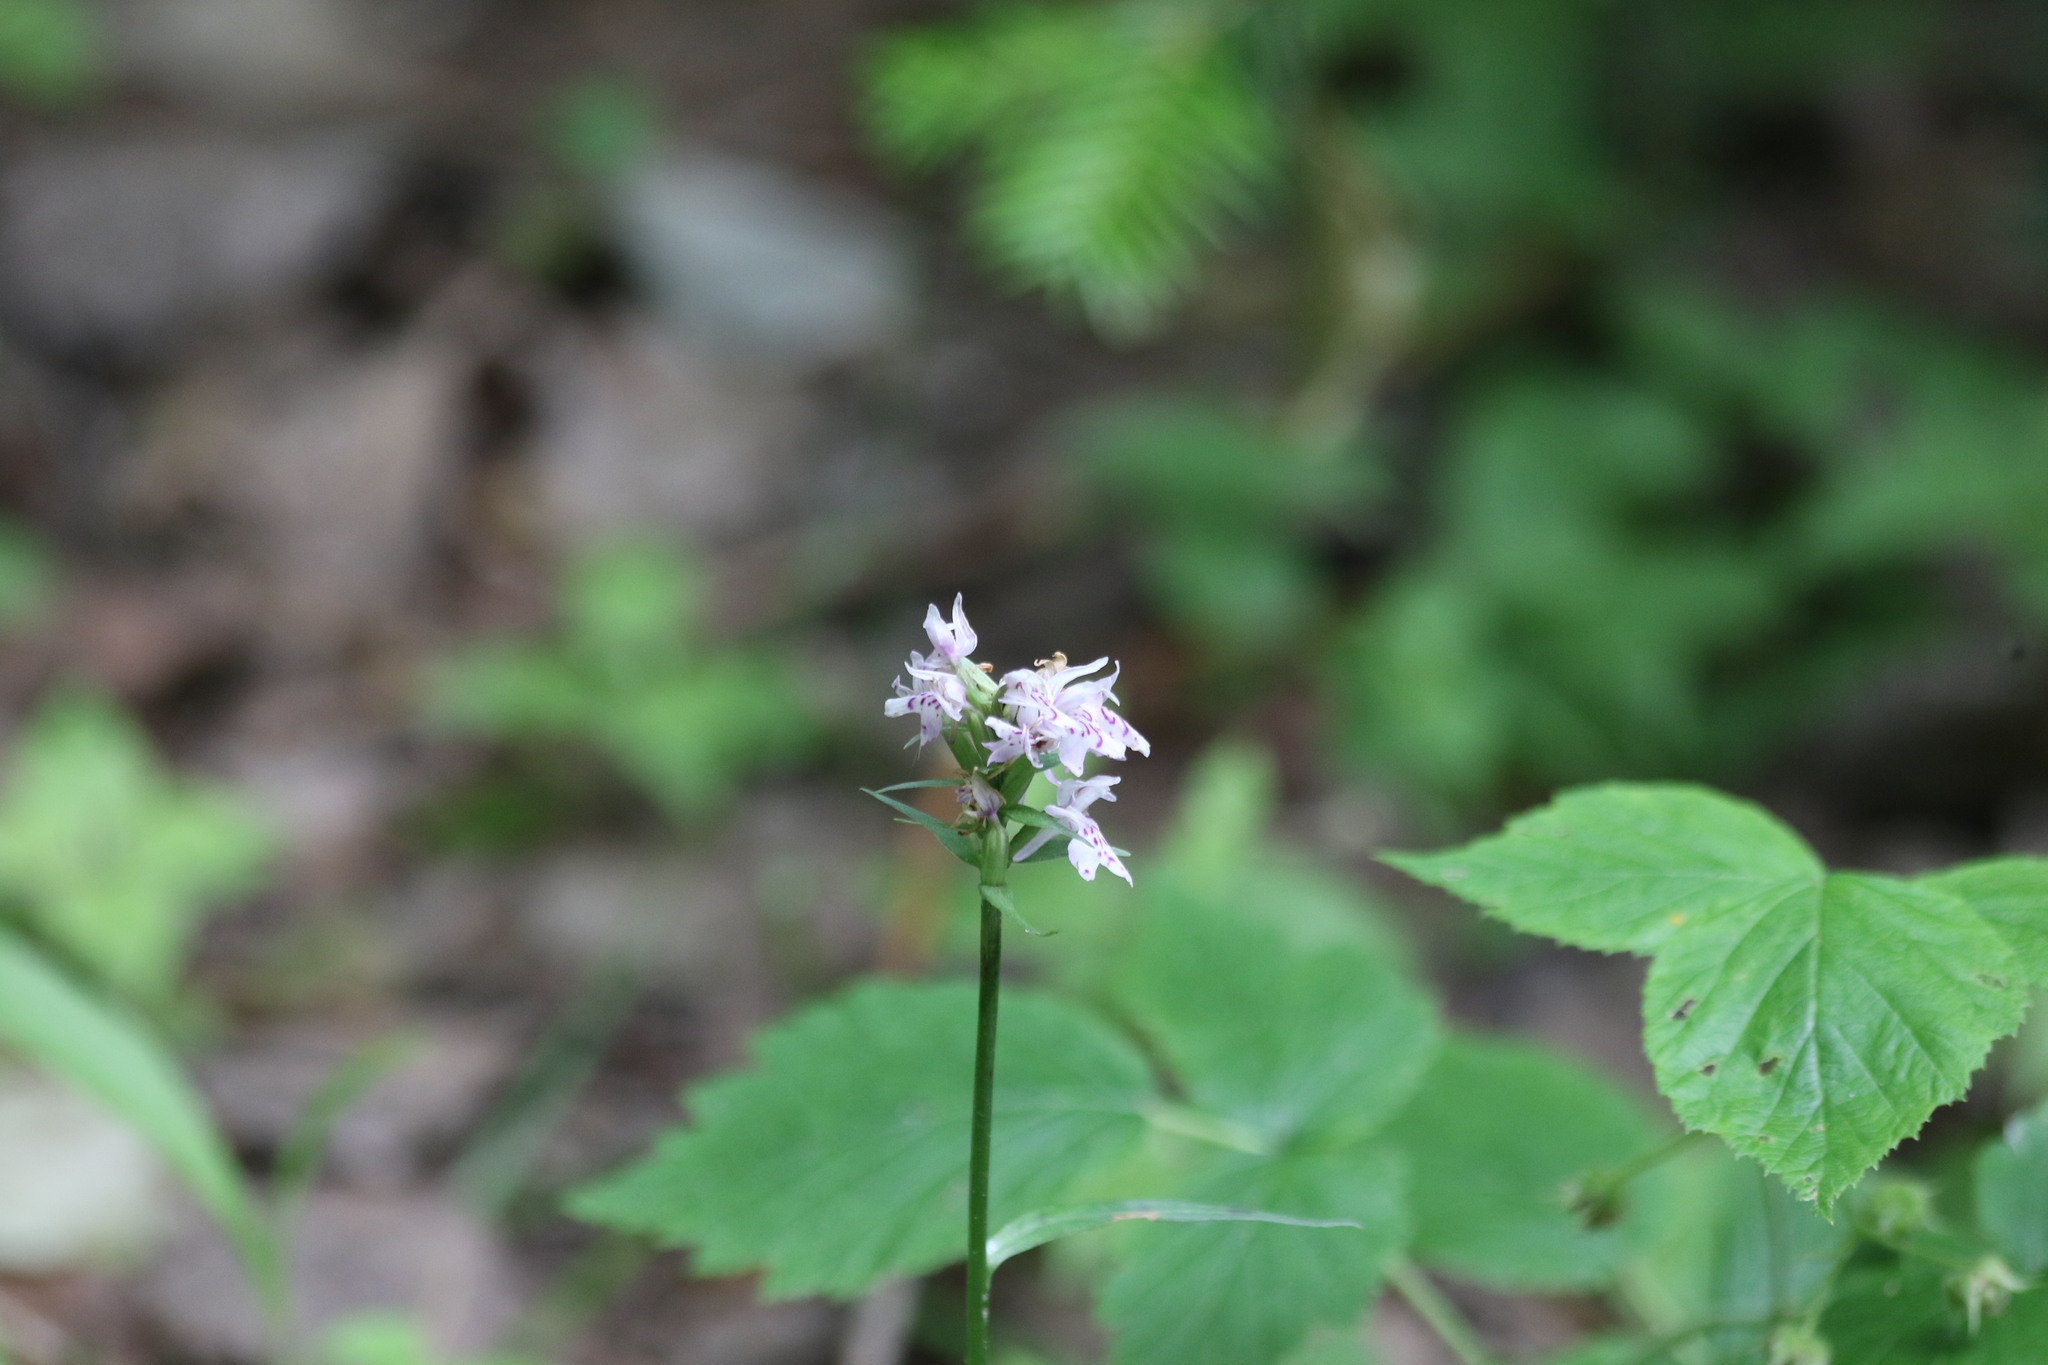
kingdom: Plantae
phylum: Tracheophyta
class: Liliopsida
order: Asparagales
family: Orchidaceae
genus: Dactylorhiza
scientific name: Dactylorhiza maculata
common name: Heath spotted-orchid
